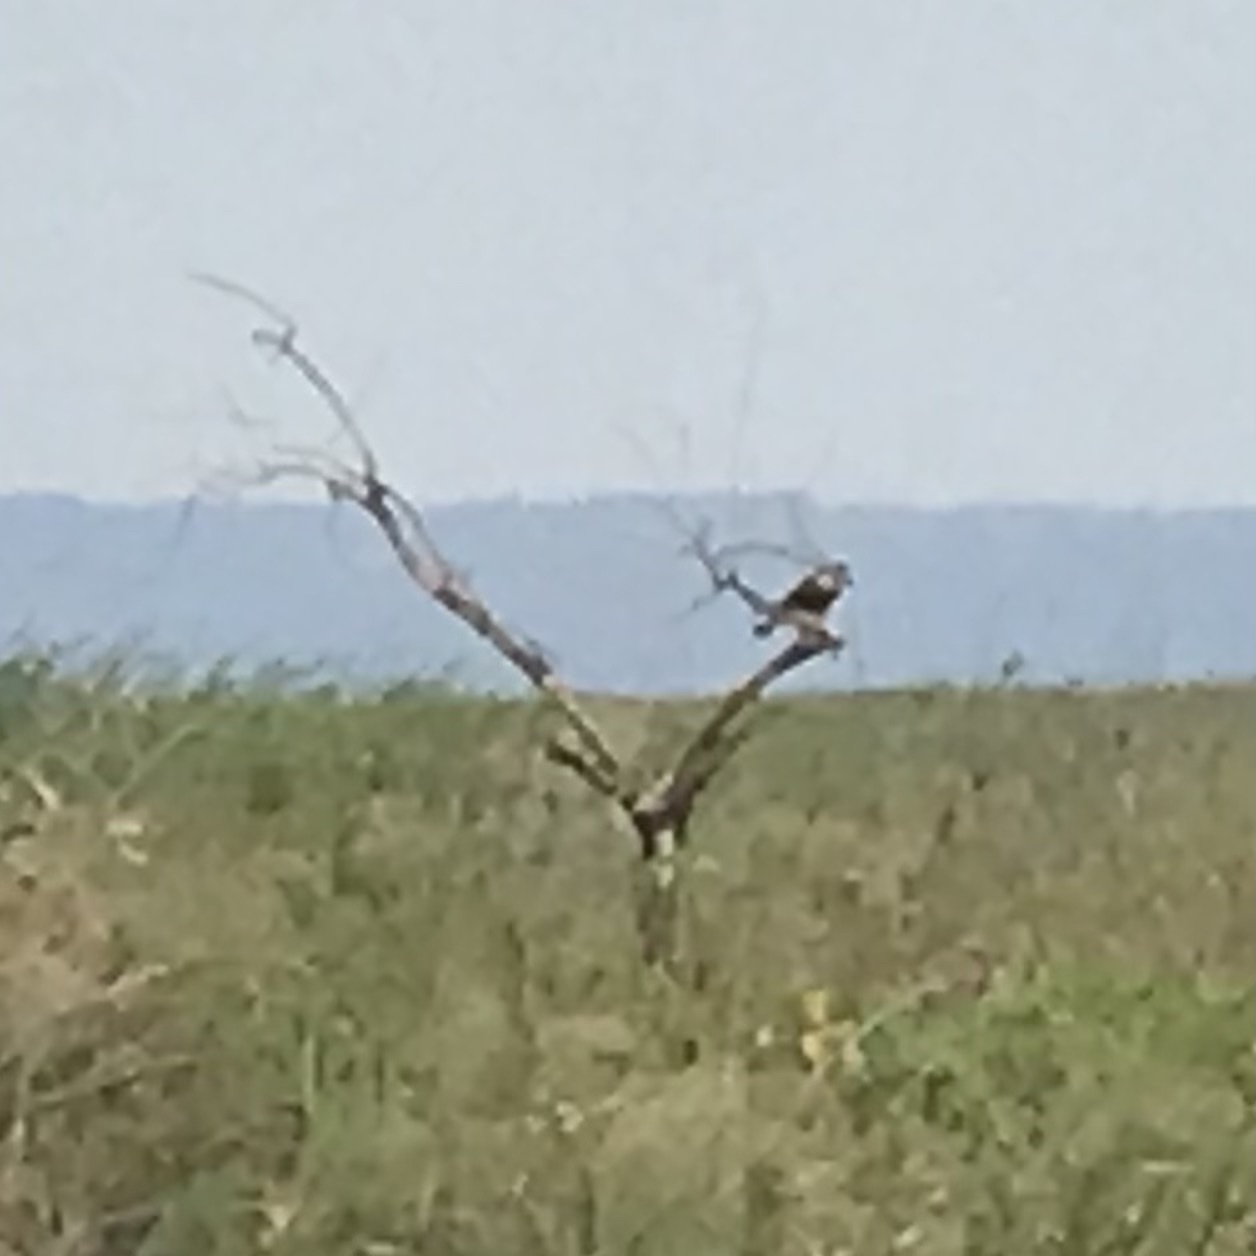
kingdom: Animalia
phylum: Chordata
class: Aves
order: Falconiformes
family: Falconidae
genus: Falco
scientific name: Falco femoralis
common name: Aplomado falcon
